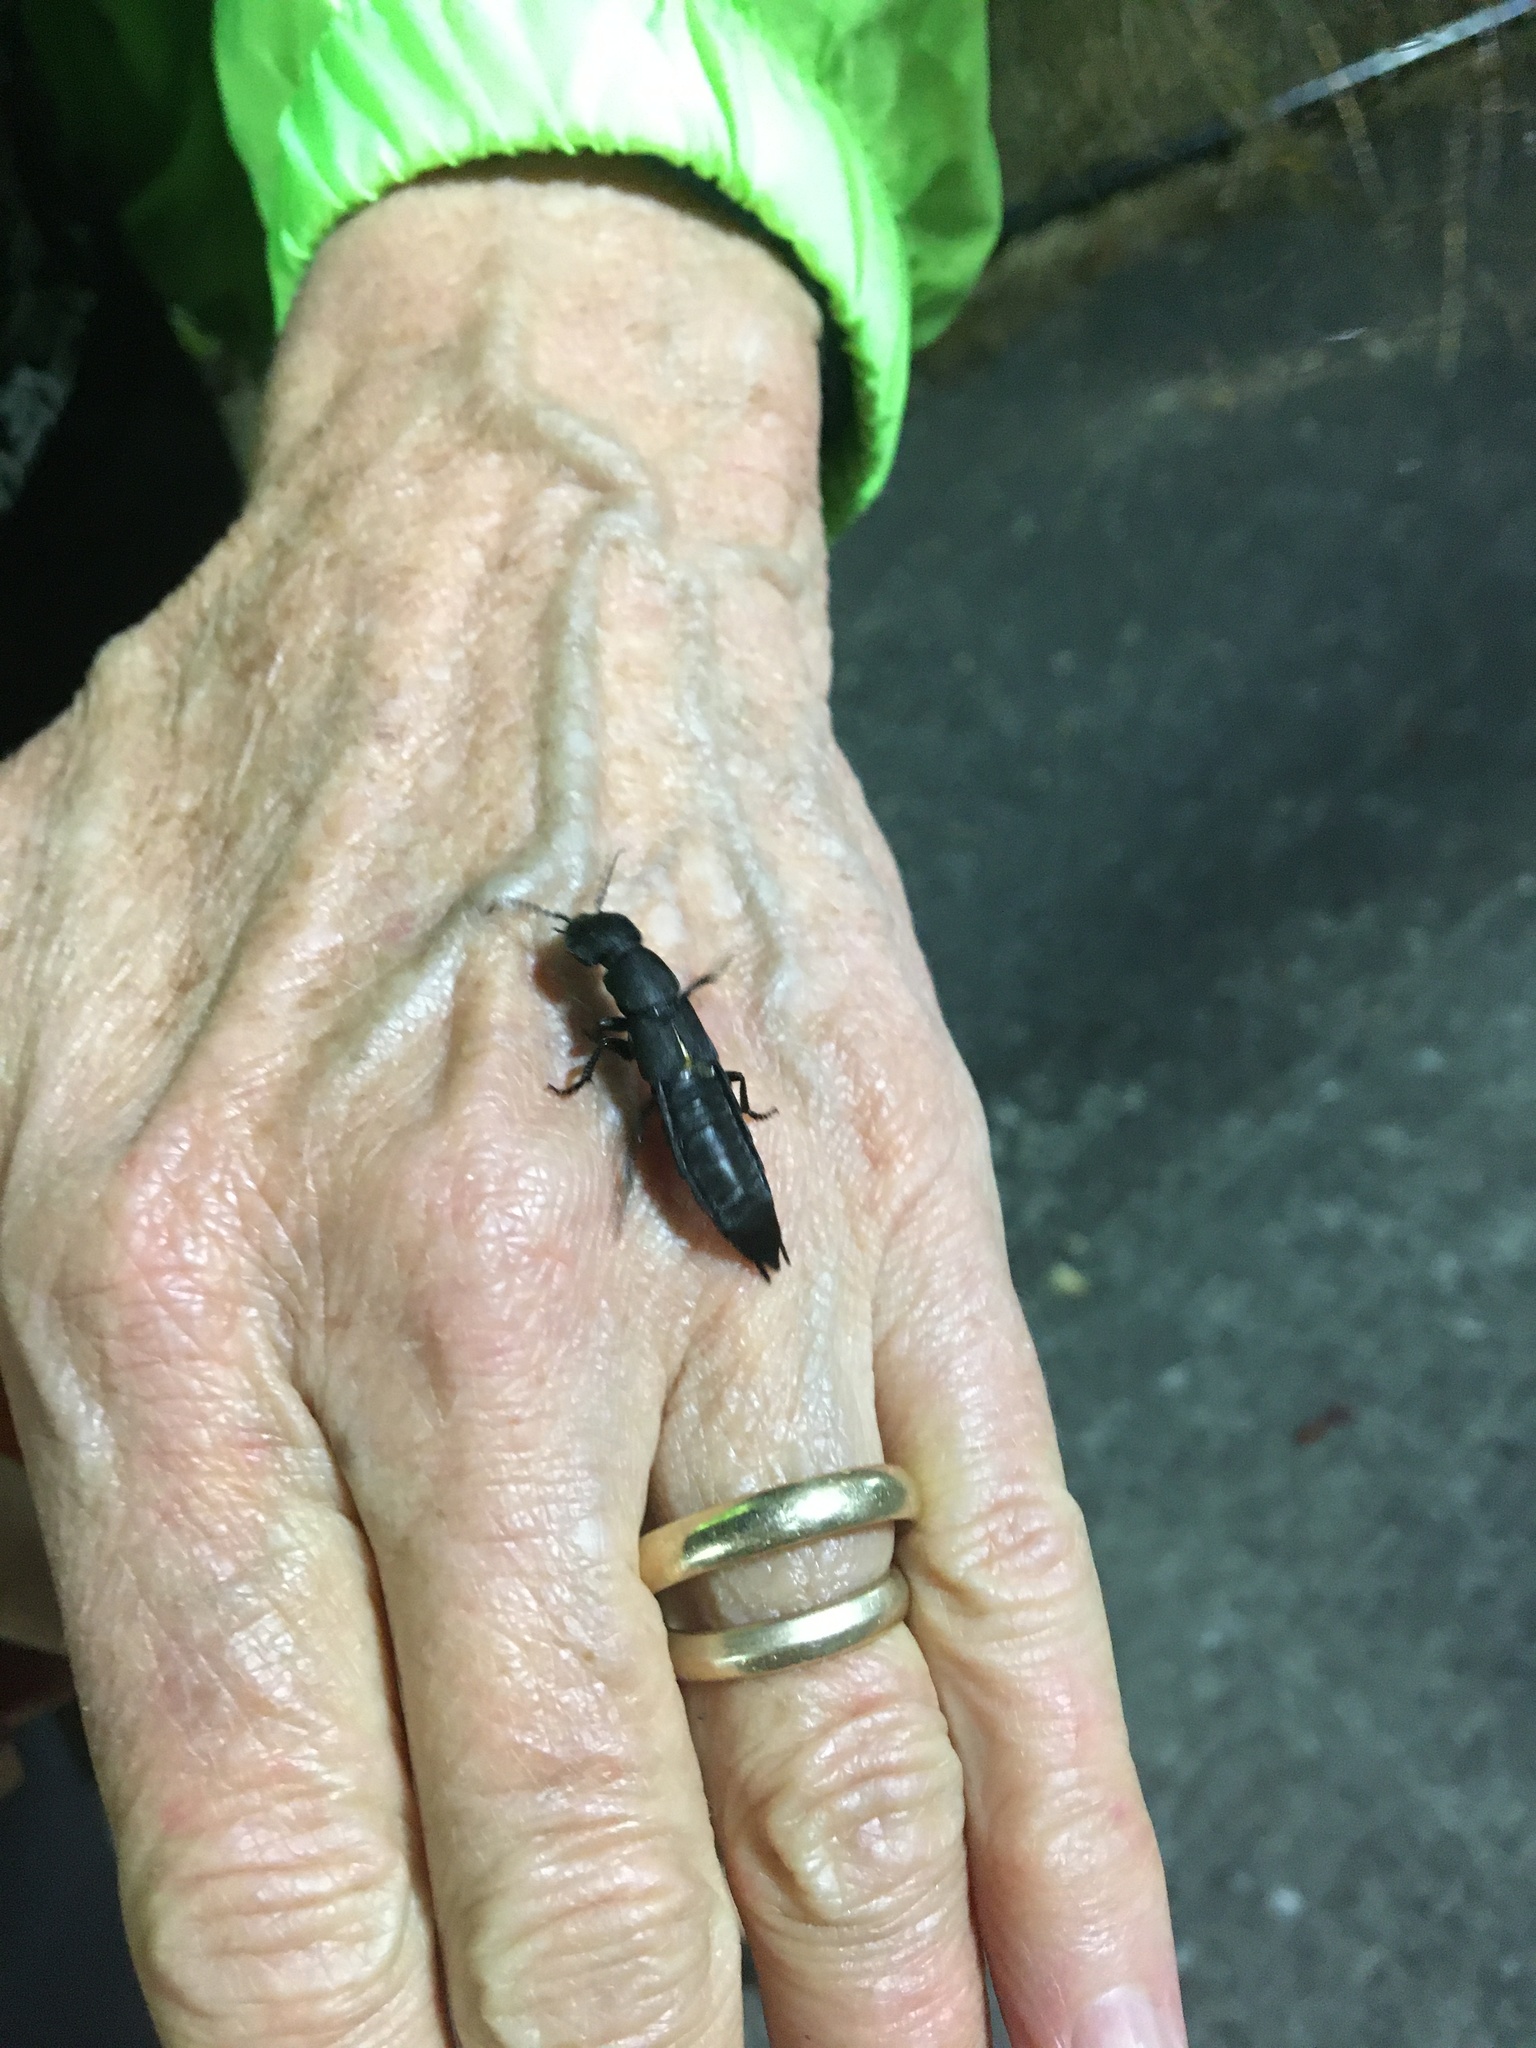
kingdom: Animalia
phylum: Arthropoda
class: Insecta
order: Coleoptera
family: Staphylinidae
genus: Ocypus
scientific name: Ocypus olens
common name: Devil's coach-horse
